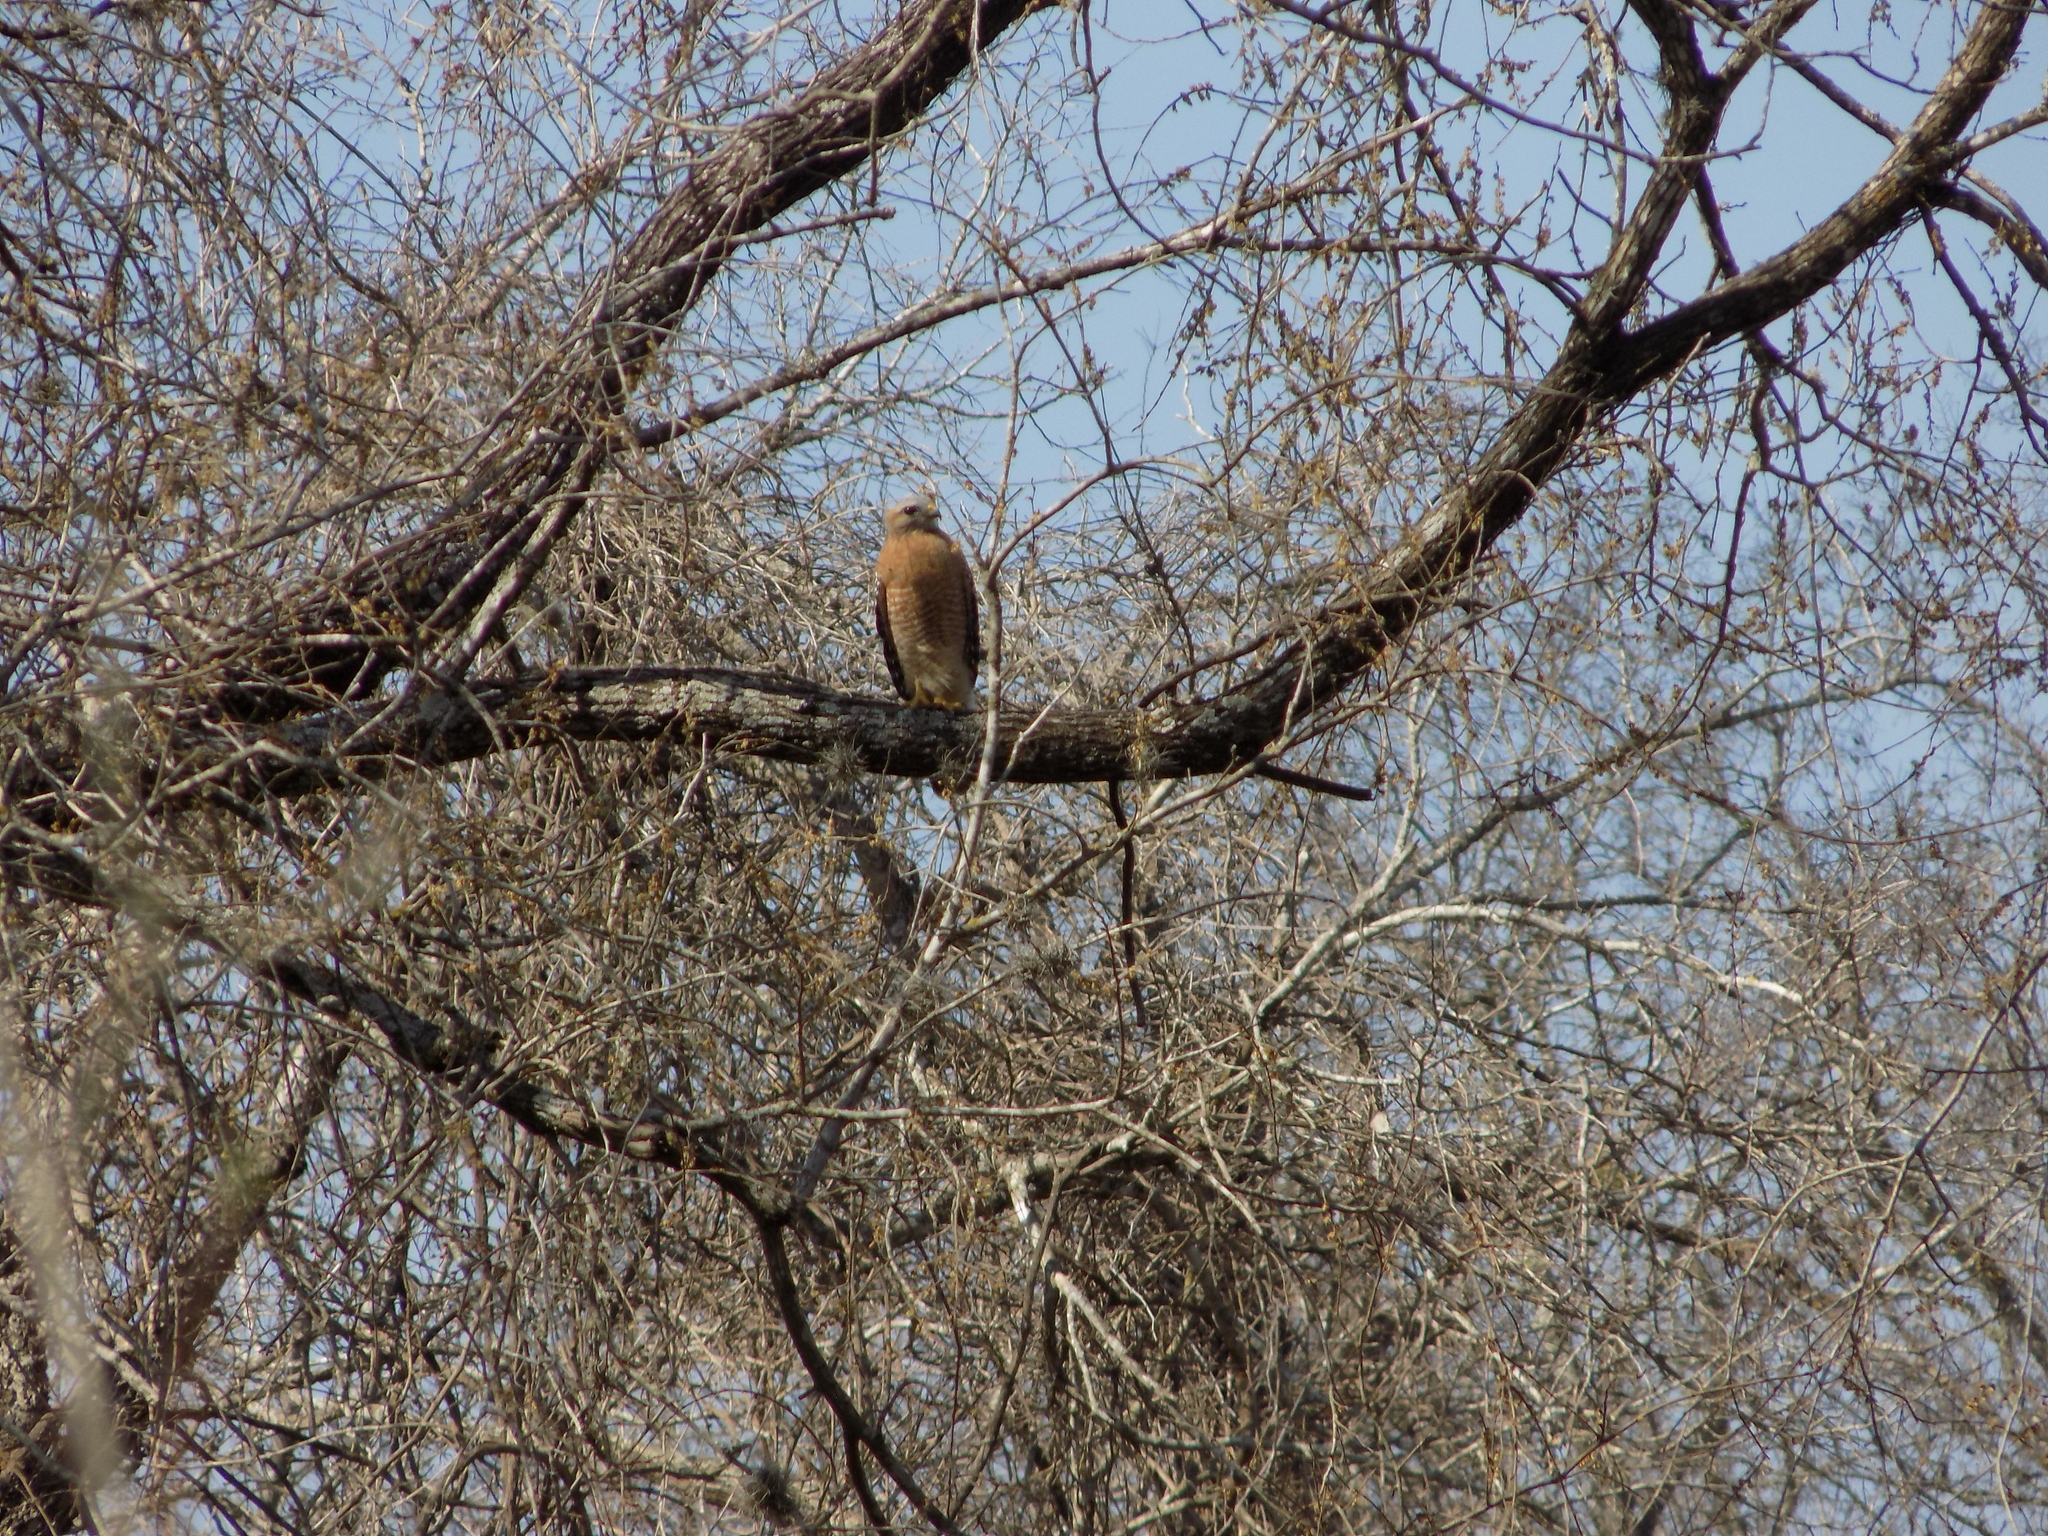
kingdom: Animalia
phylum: Chordata
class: Aves
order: Accipitriformes
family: Accipitridae
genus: Buteo
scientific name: Buteo lineatus
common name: Red-shouldered hawk
